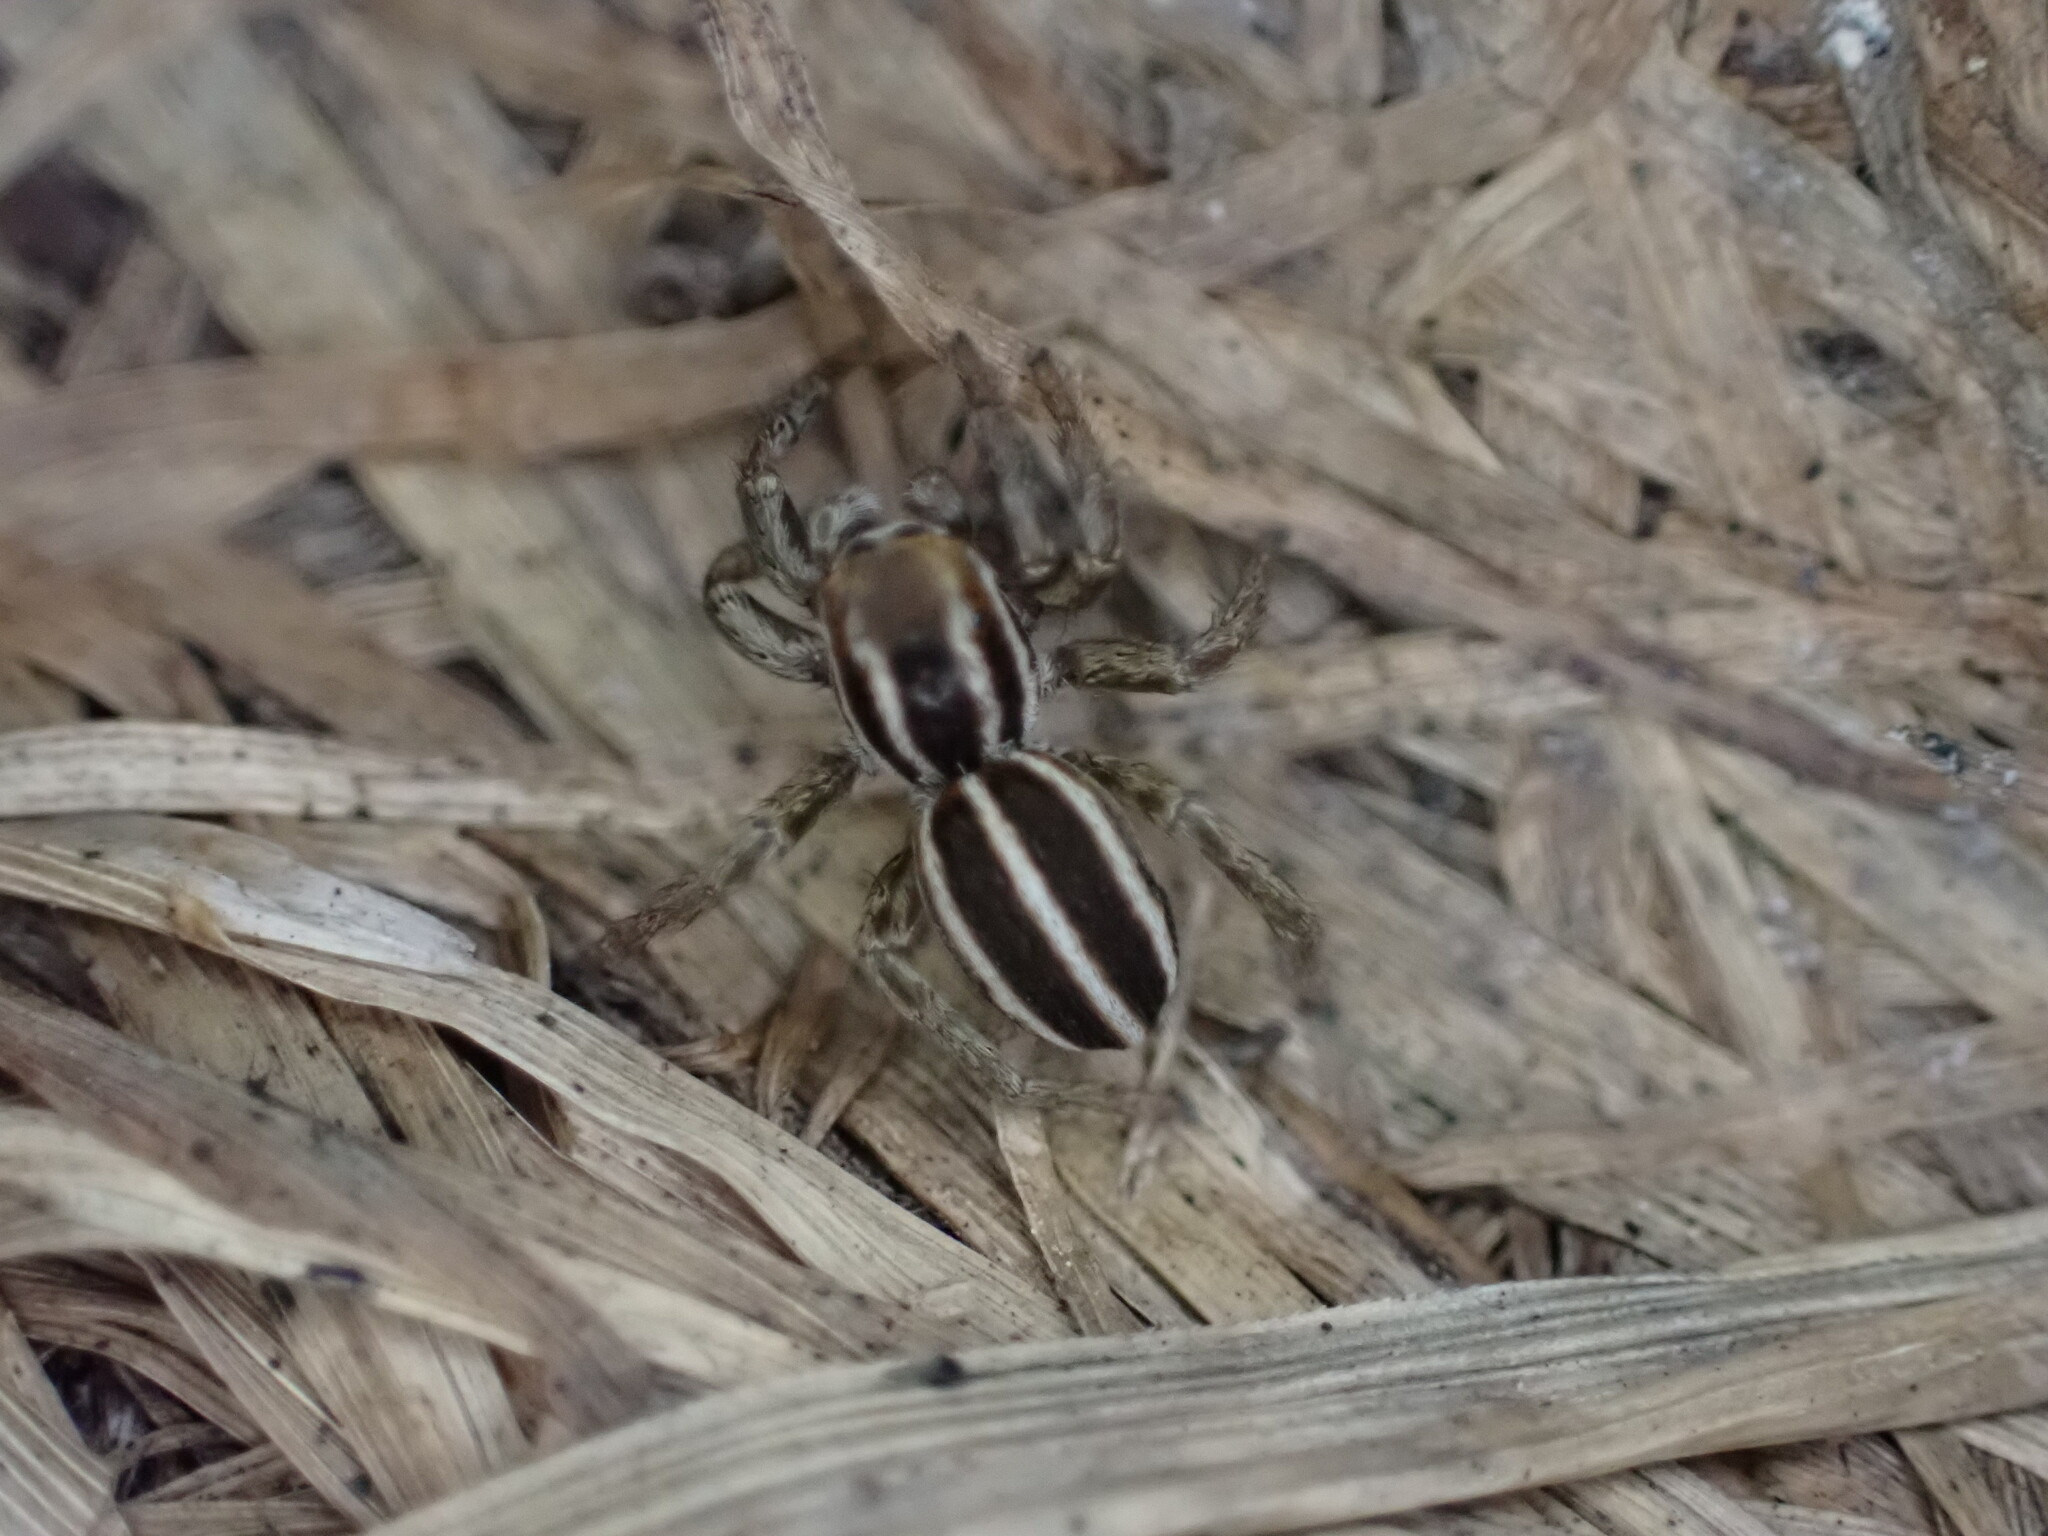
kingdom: Animalia
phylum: Arthropoda
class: Arachnida
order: Araneae
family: Salticidae
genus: Phlegra
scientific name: Phlegra bresnieri
